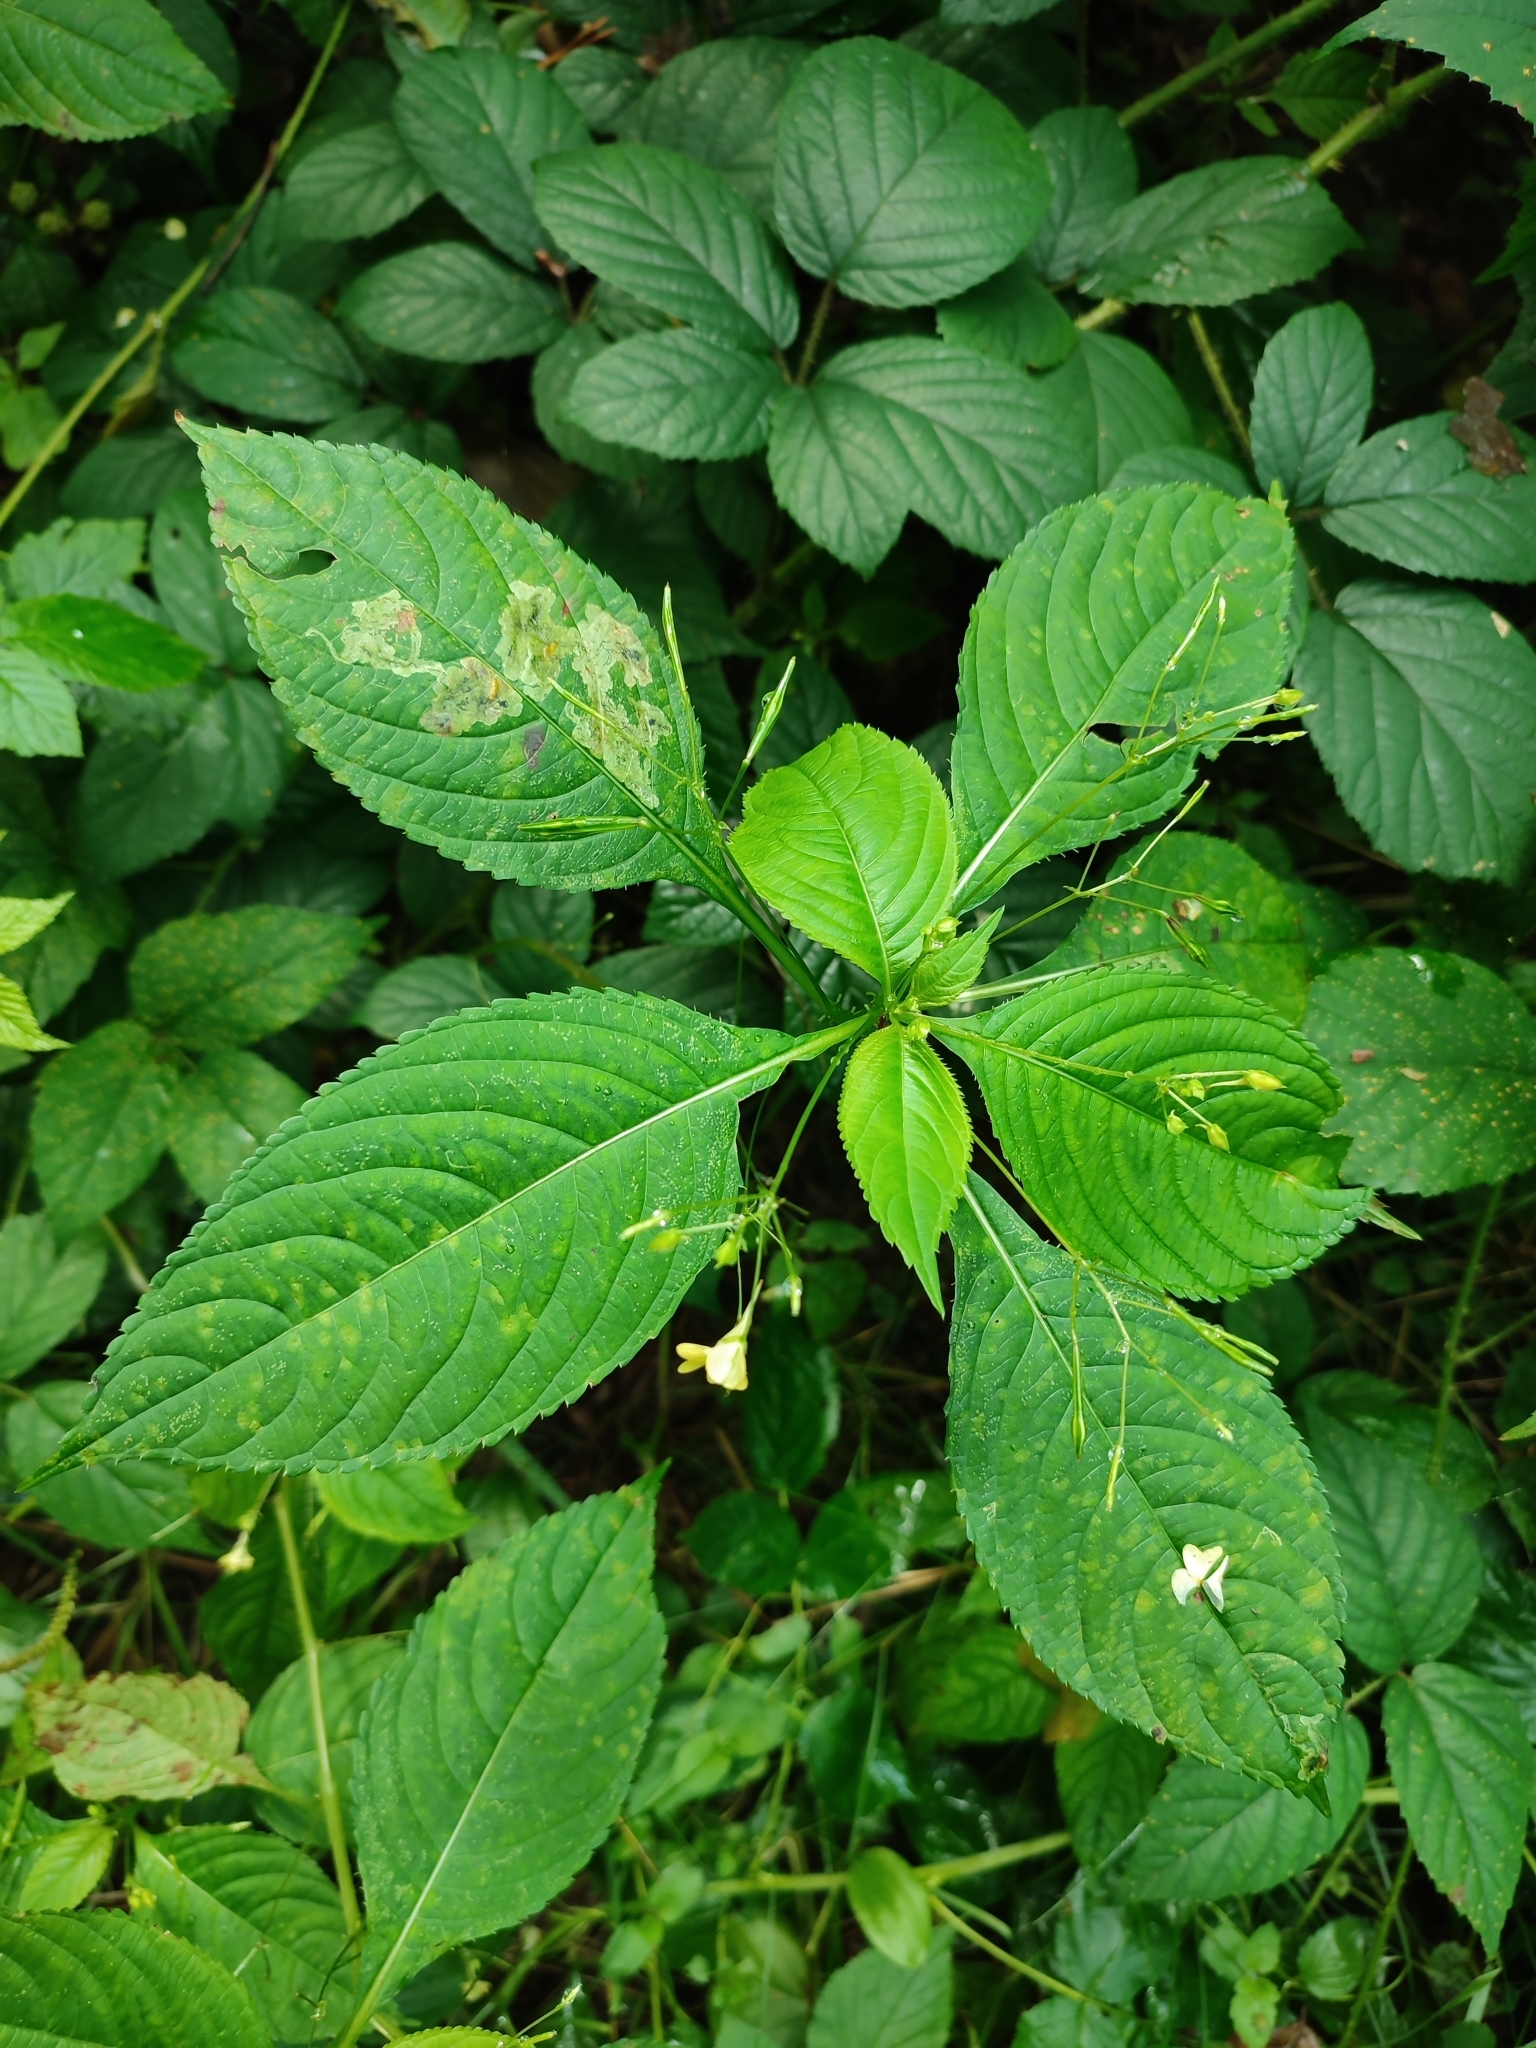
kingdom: Plantae
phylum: Tracheophyta
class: Magnoliopsida
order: Ericales
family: Balsaminaceae
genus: Impatiens
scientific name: Impatiens parviflora
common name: Small balsam
